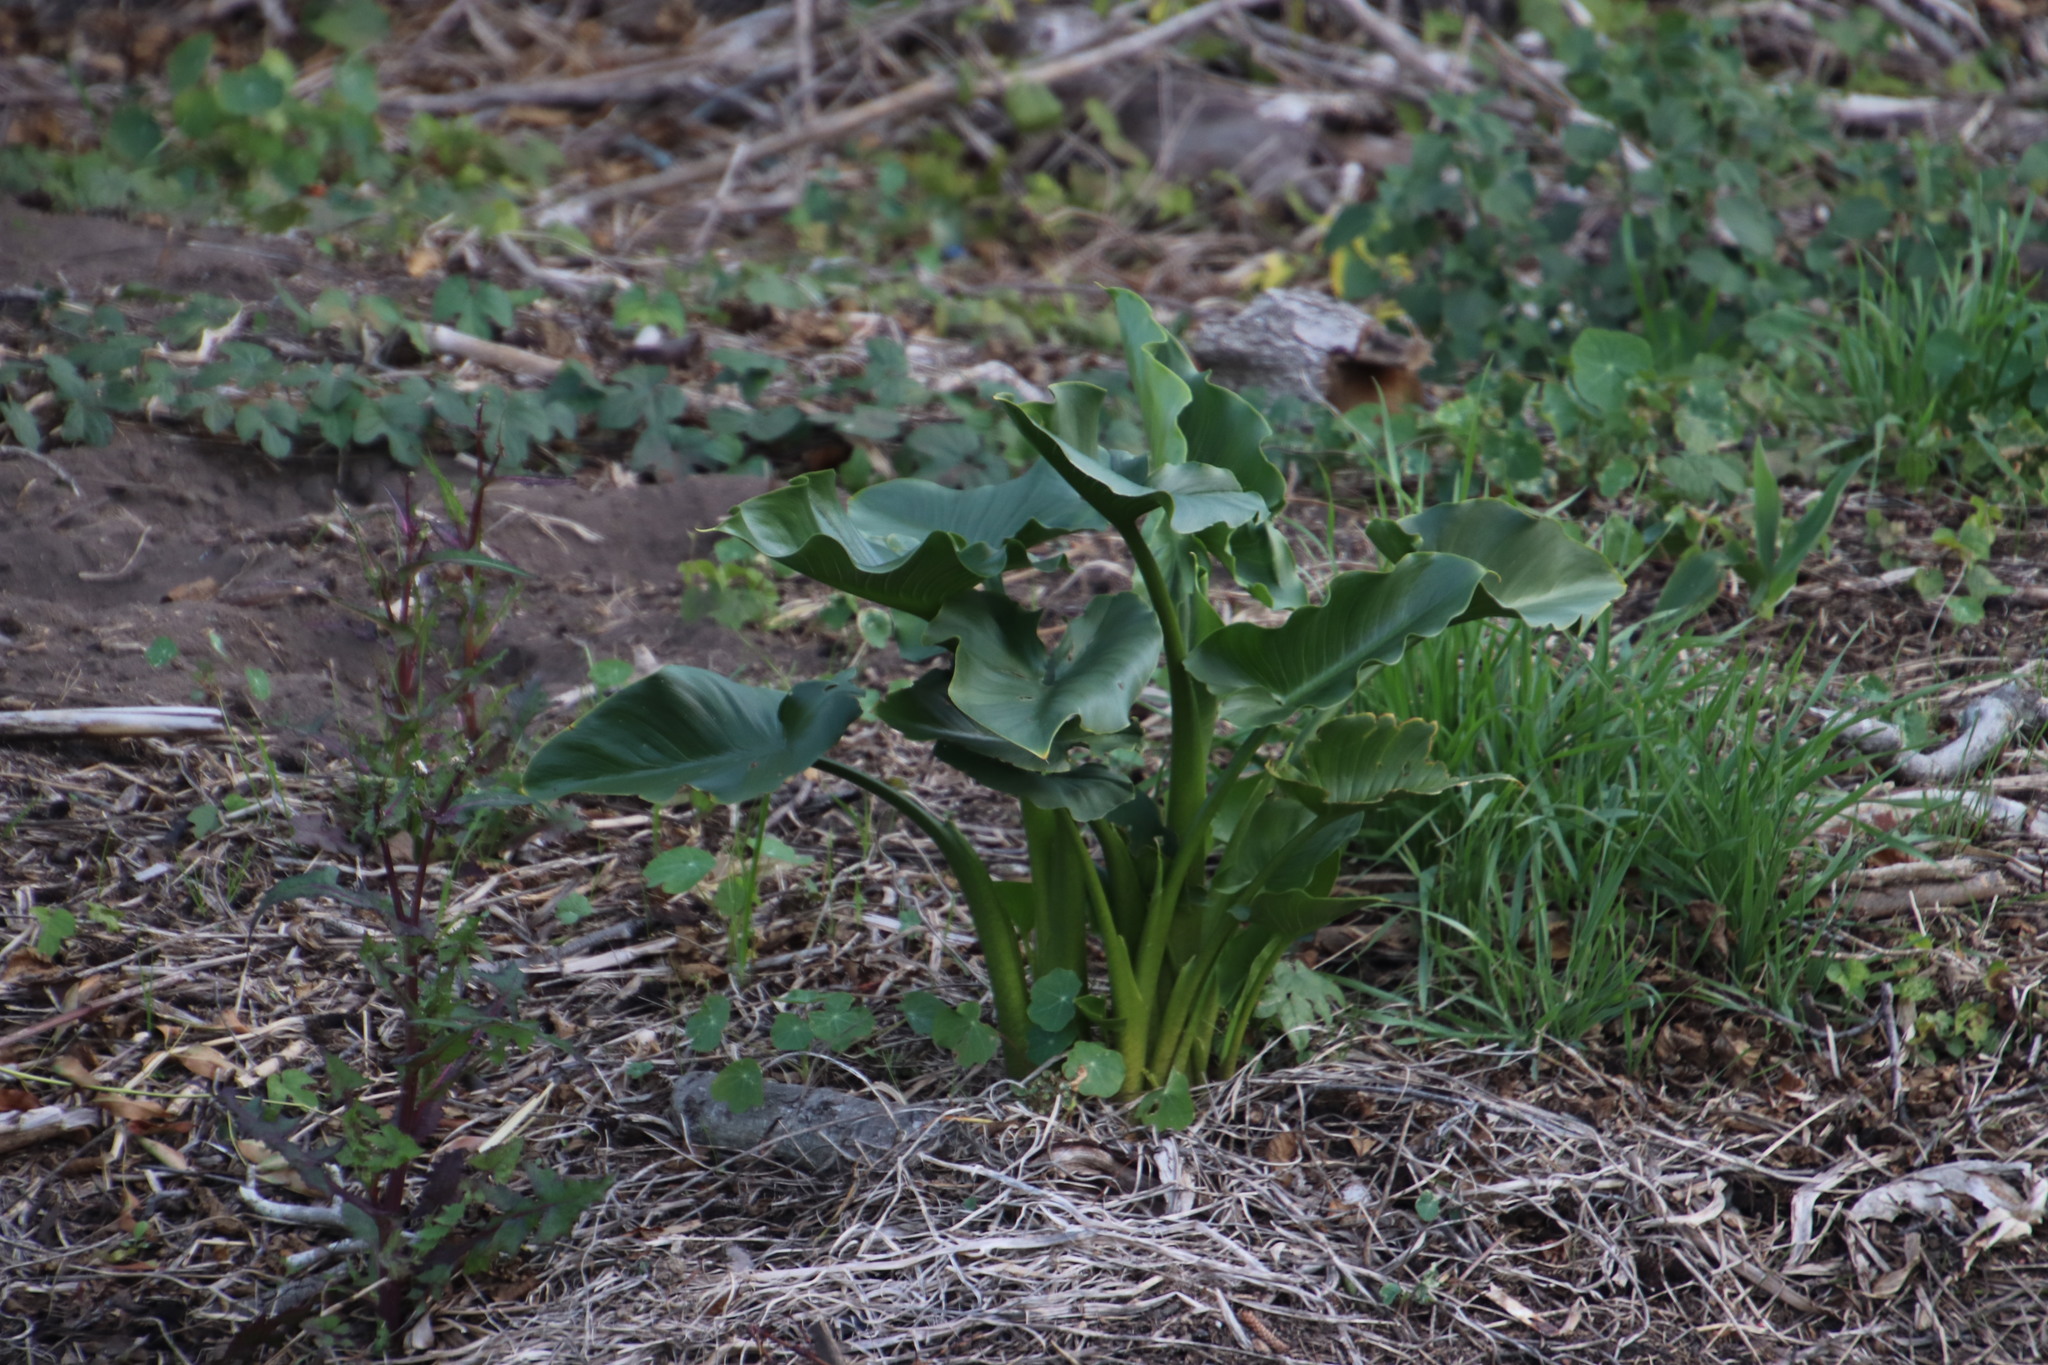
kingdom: Plantae
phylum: Tracheophyta
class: Liliopsida
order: Alismatales
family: Araceae
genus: Zantedeschia
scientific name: Zantedeschia aethiopica
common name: Altar-lily
